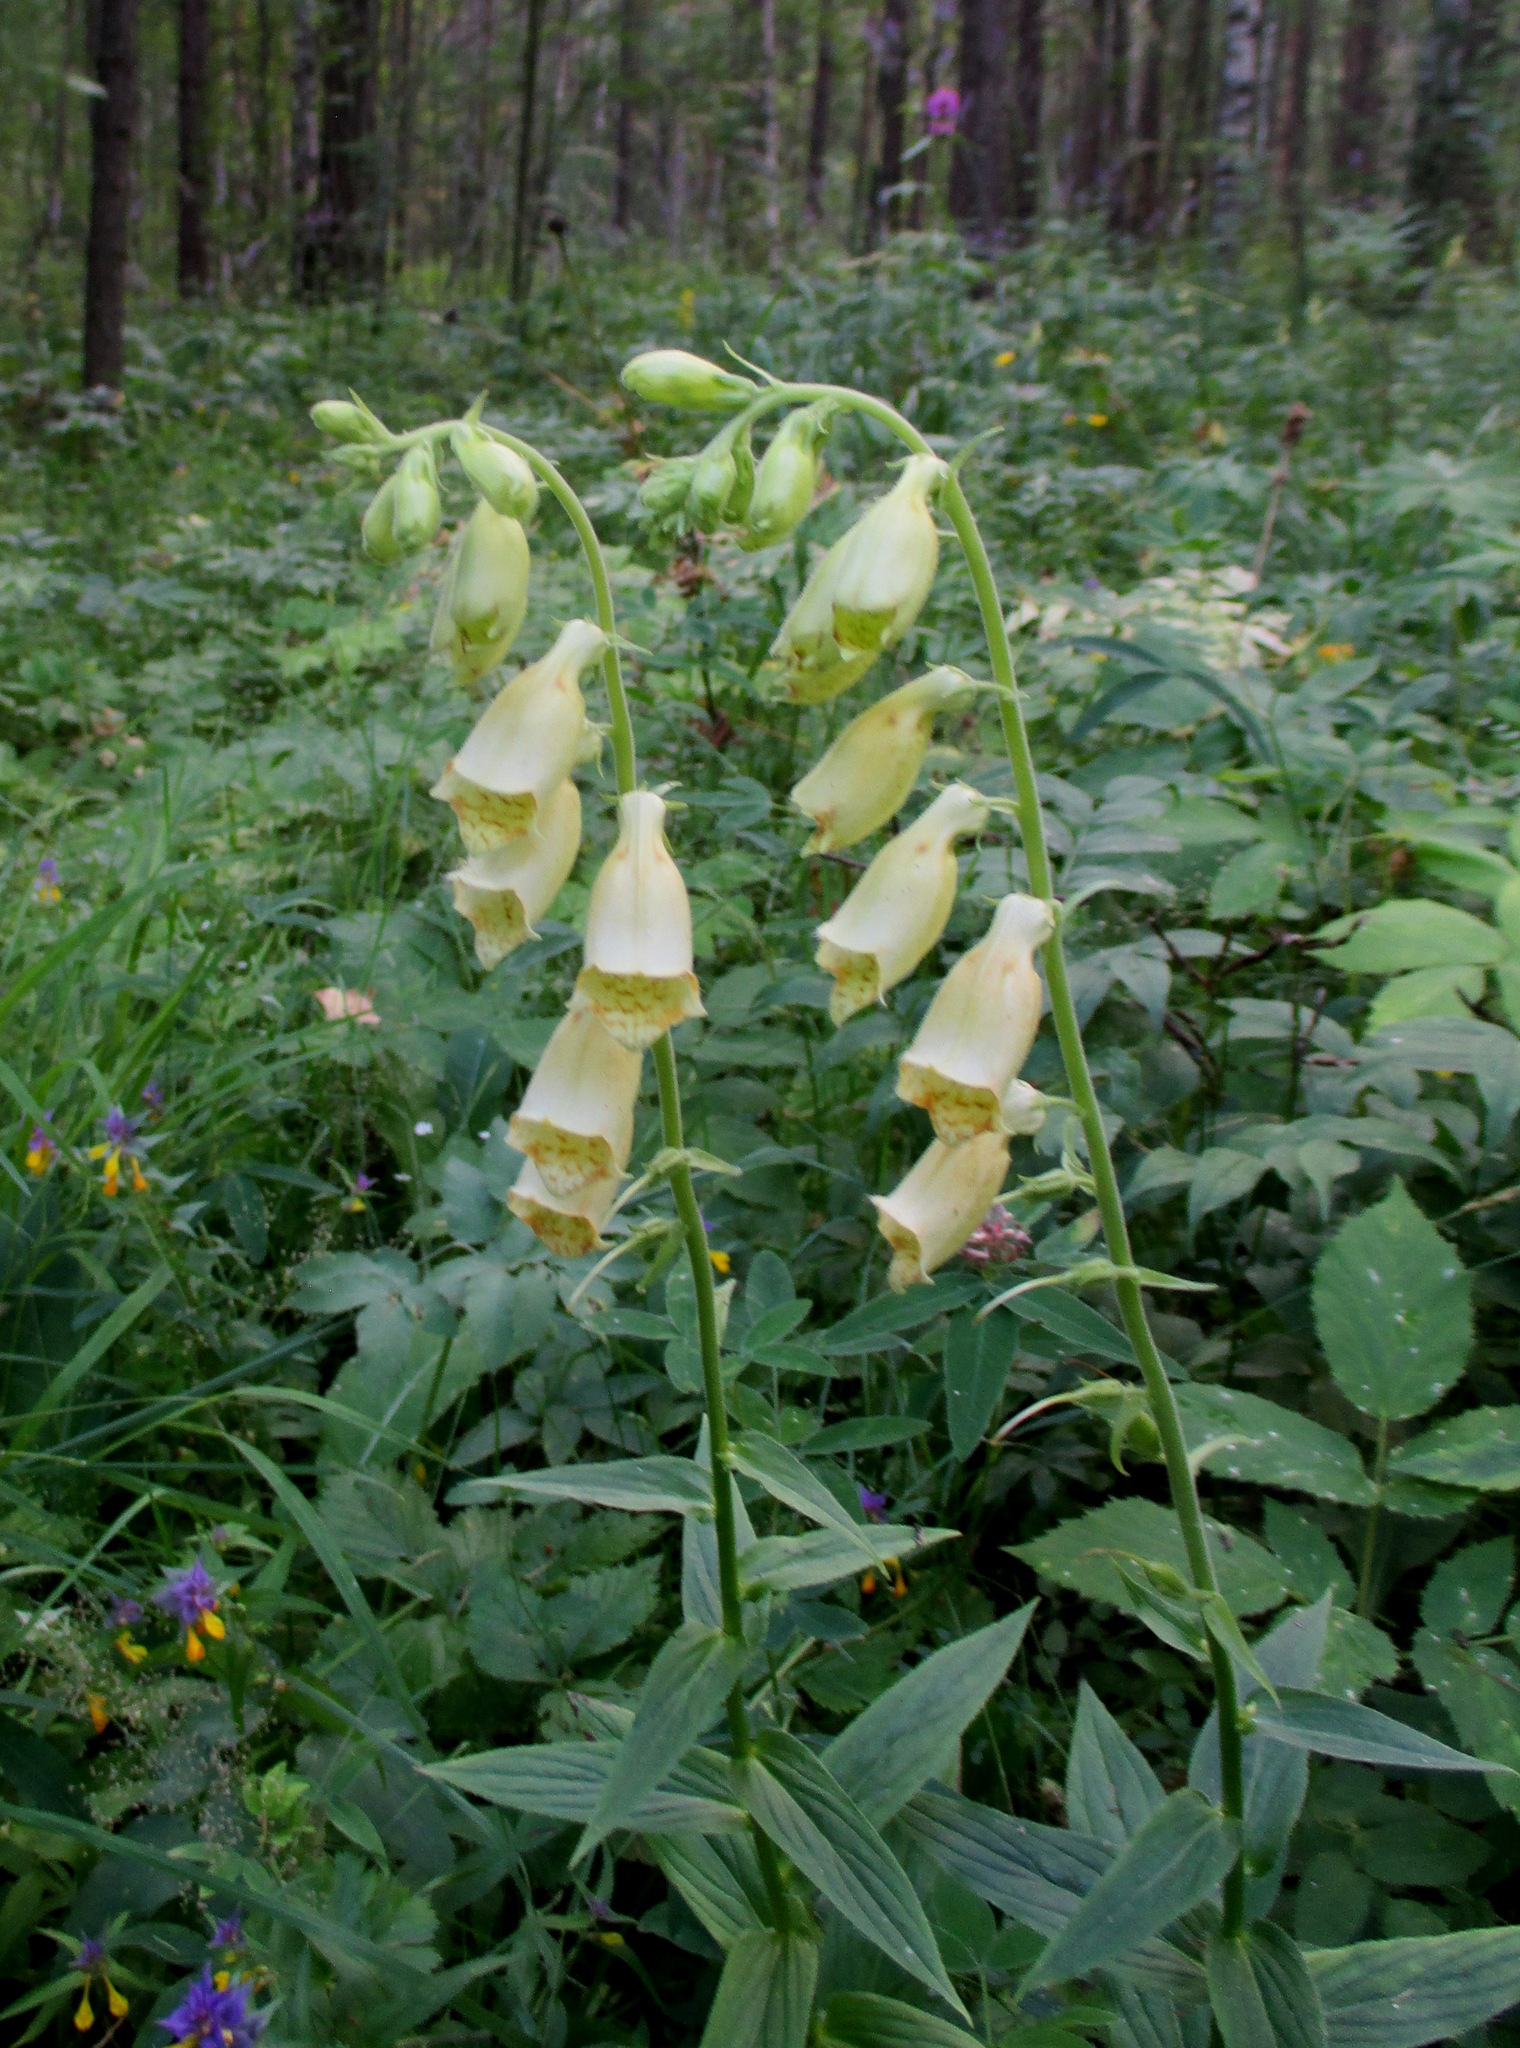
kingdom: Plantae
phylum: Tracheophyta
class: Magnoliopsida
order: Lamiales
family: Plantaginaceae
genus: Digitalis
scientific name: Digitalis grandiflora
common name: Yellow foxglove
